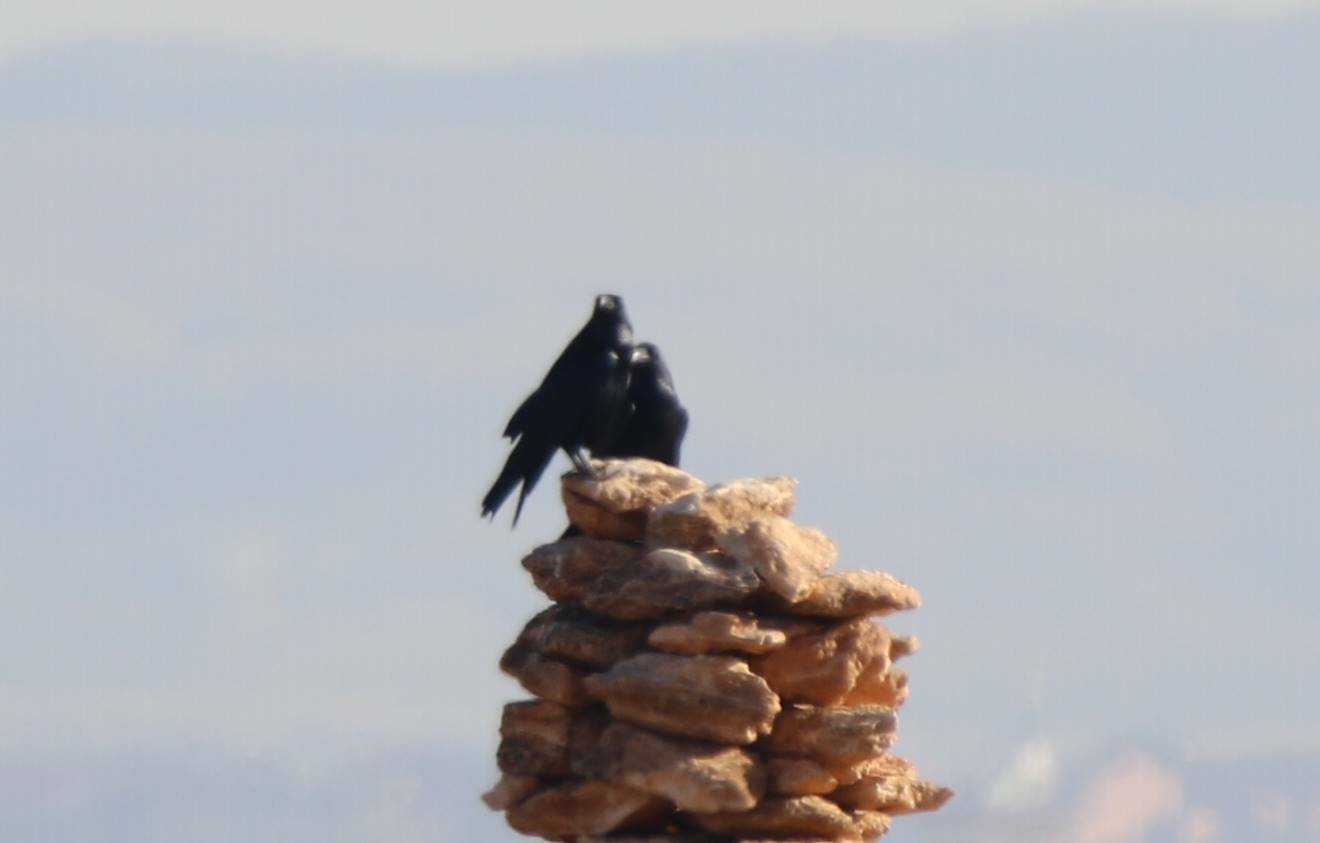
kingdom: Animalia
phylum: Chordata
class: Aves
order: Passeriformes
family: Corvidae
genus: Corvus
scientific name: Corvus corax
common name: Common raven
